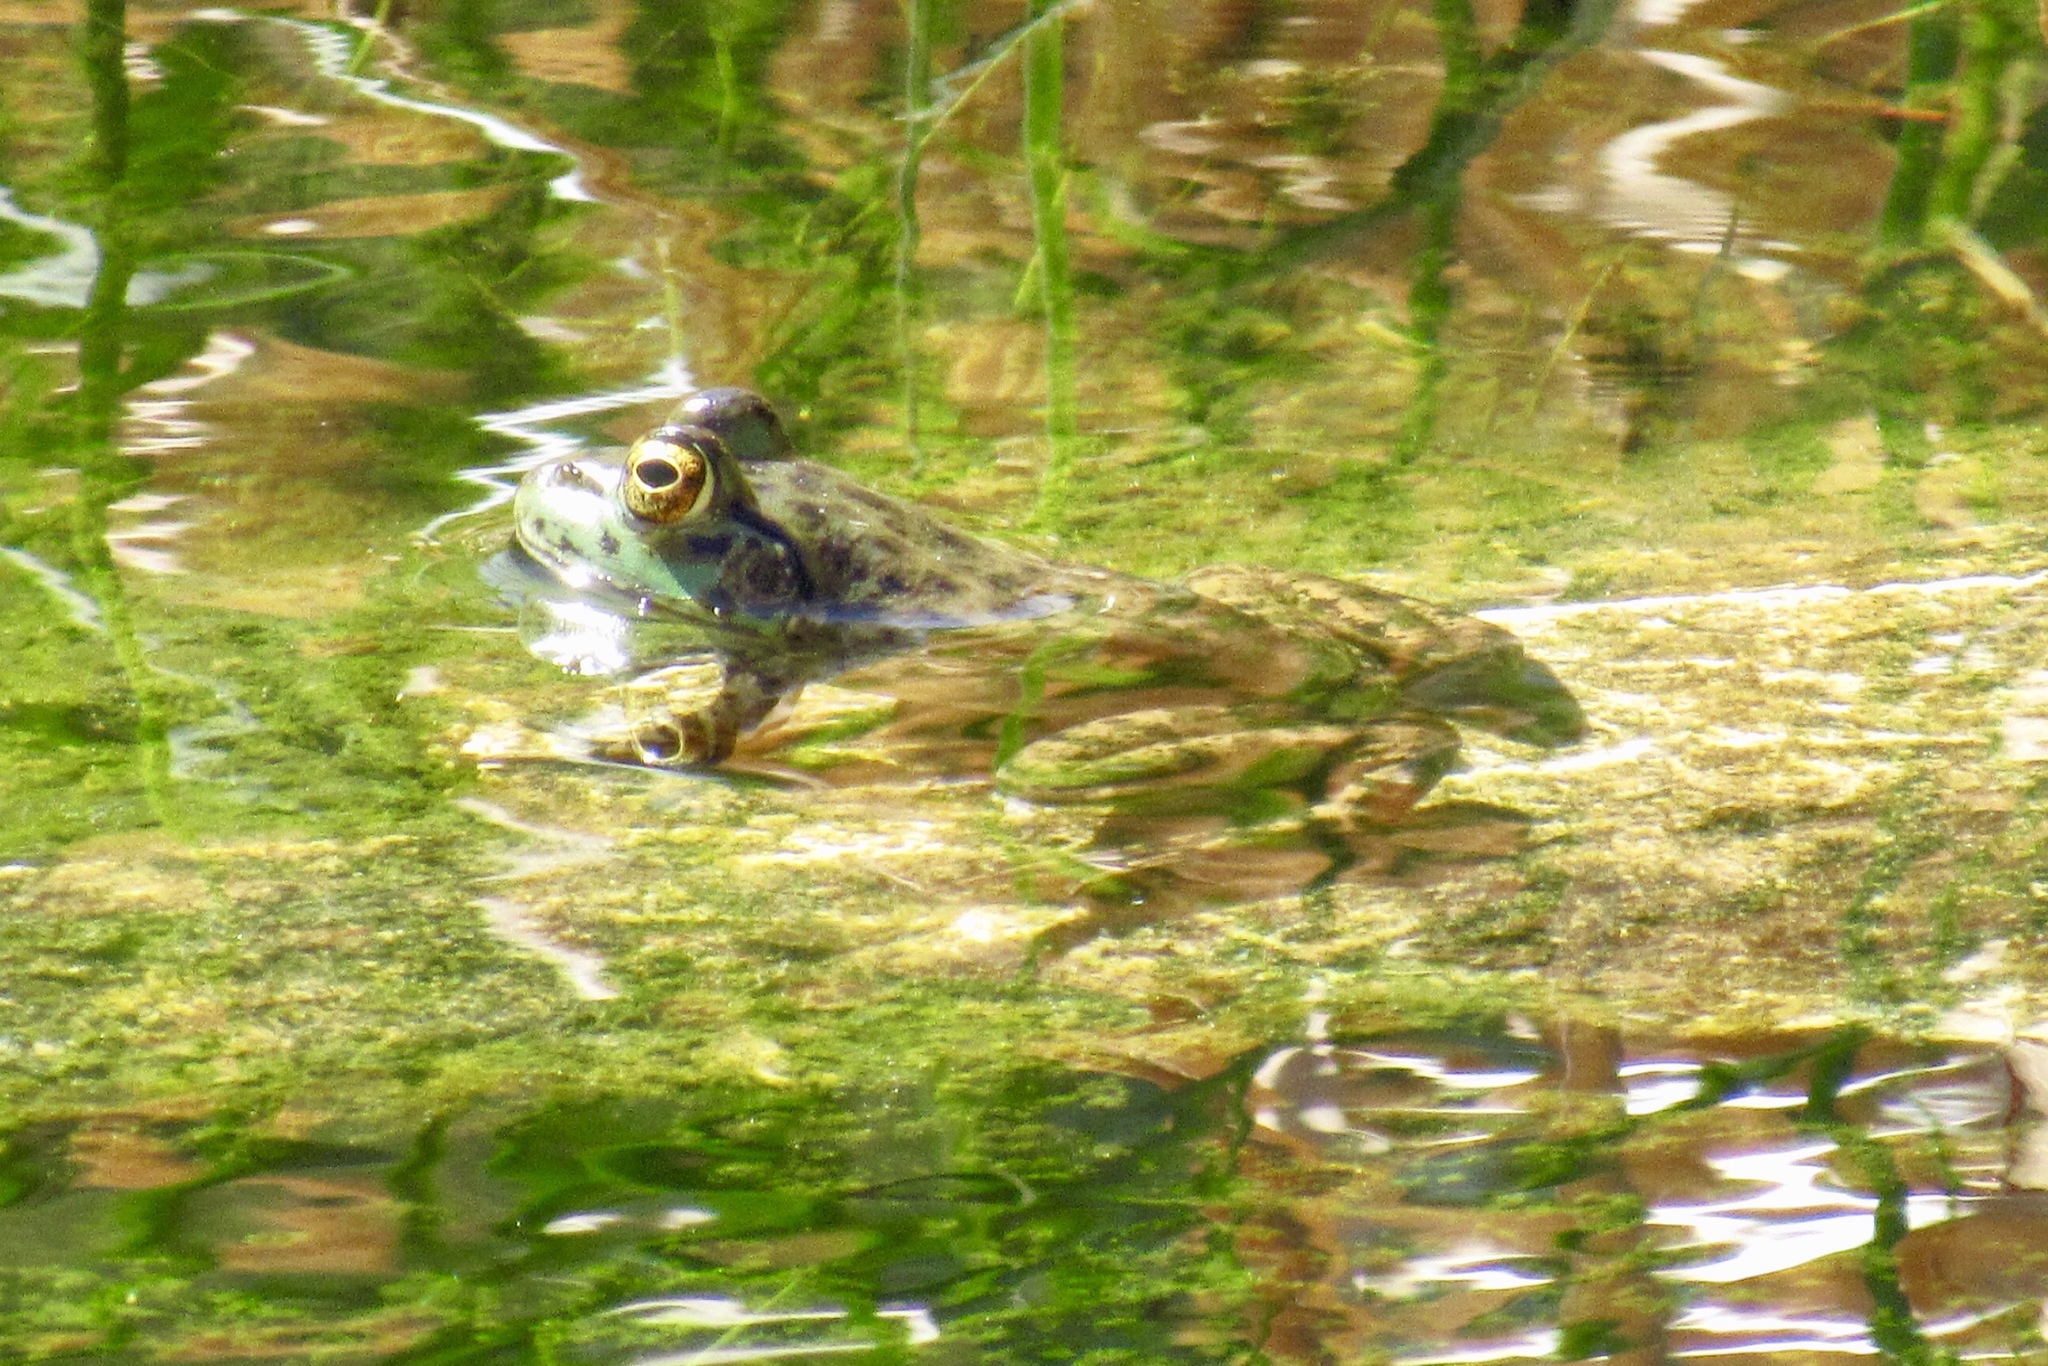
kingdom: Animalia
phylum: Chordata
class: Amphibia
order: Anura
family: Ranidae
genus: Lithobates
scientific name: Lithobates catesbeianus
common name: American bullfrog
